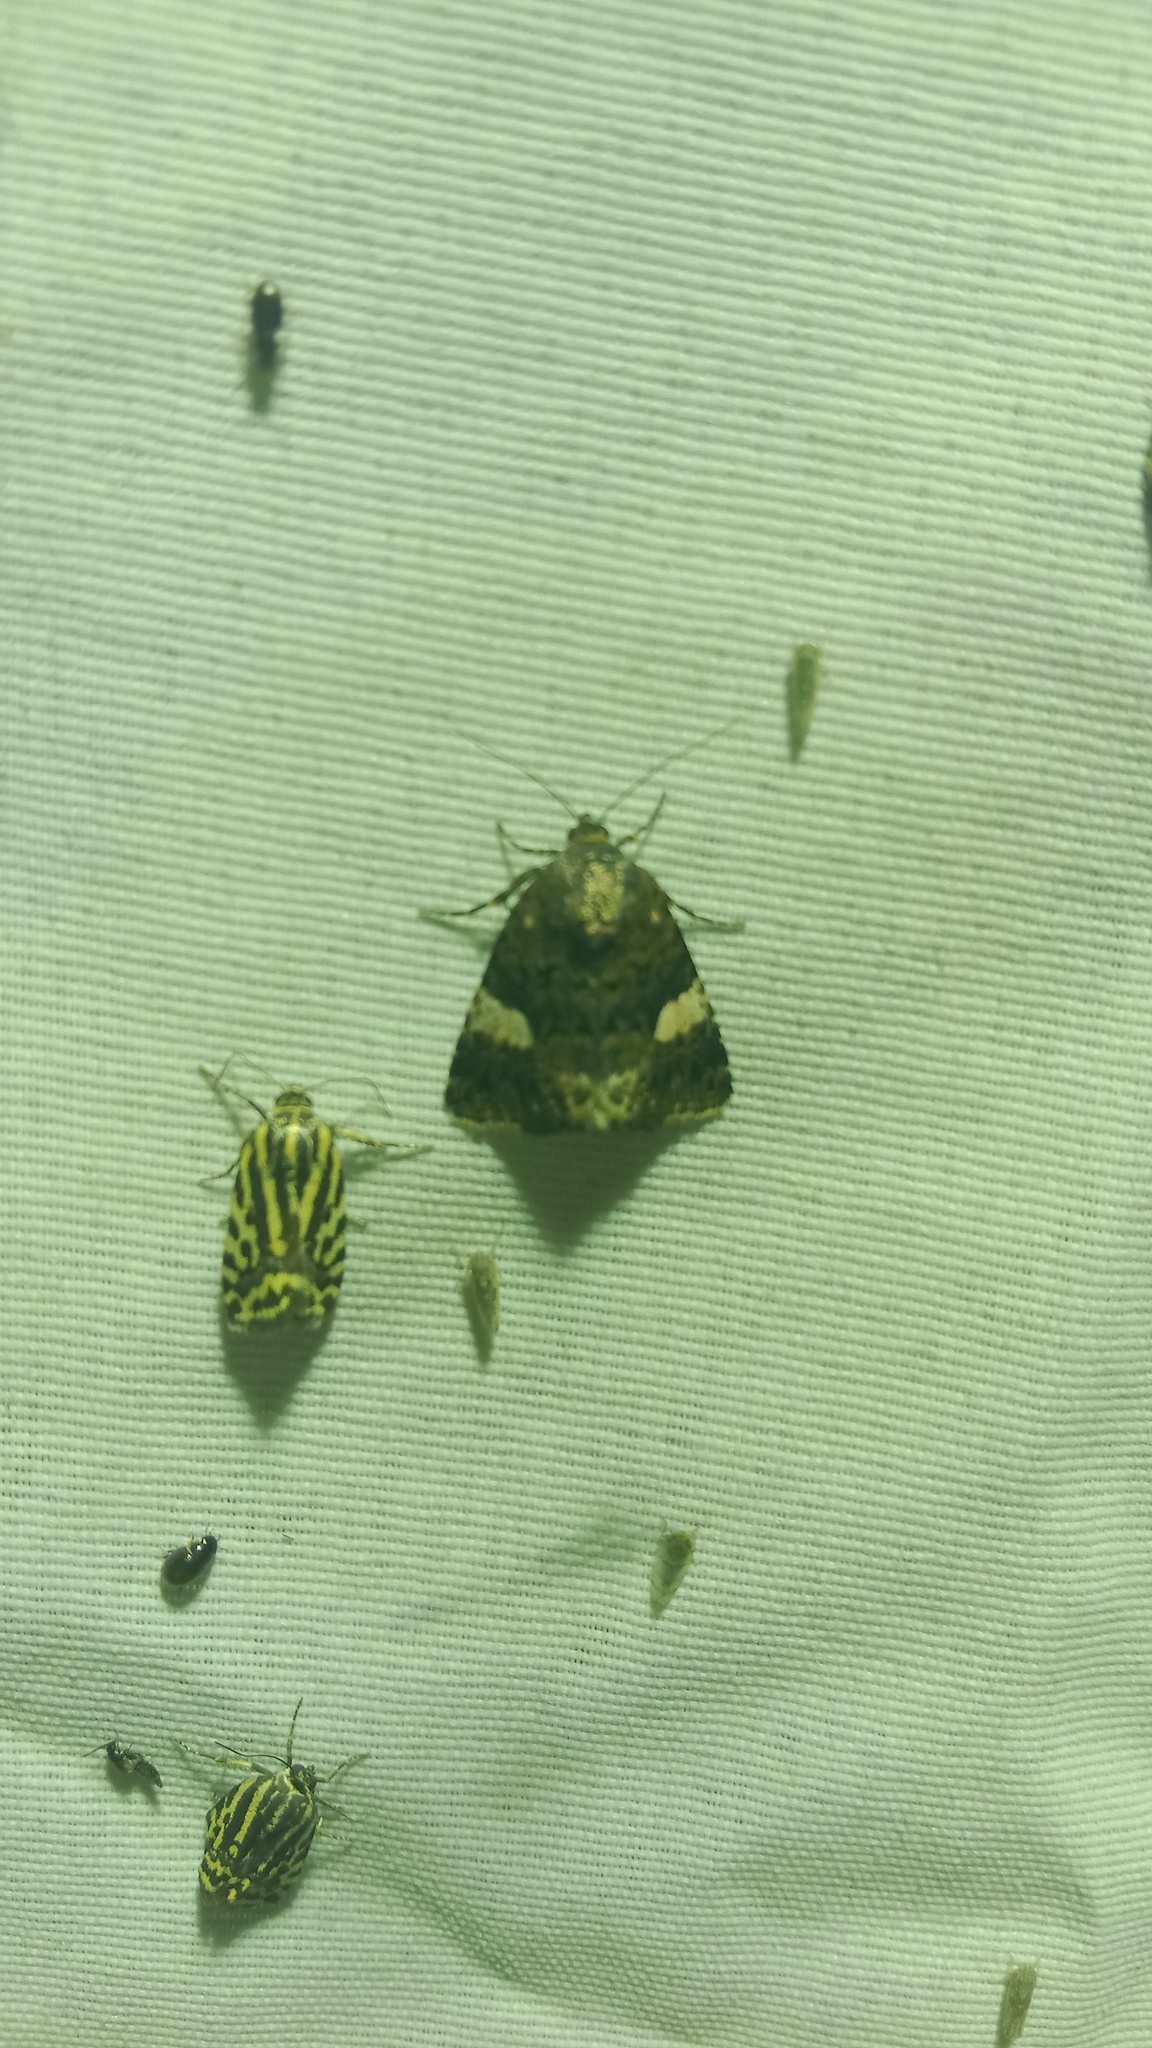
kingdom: Animalia
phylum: Arthropoda
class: Insecta
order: Lepidoptera
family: Erebidae
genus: Tyta
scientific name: Tyta luctuosa
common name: Four-spotted
